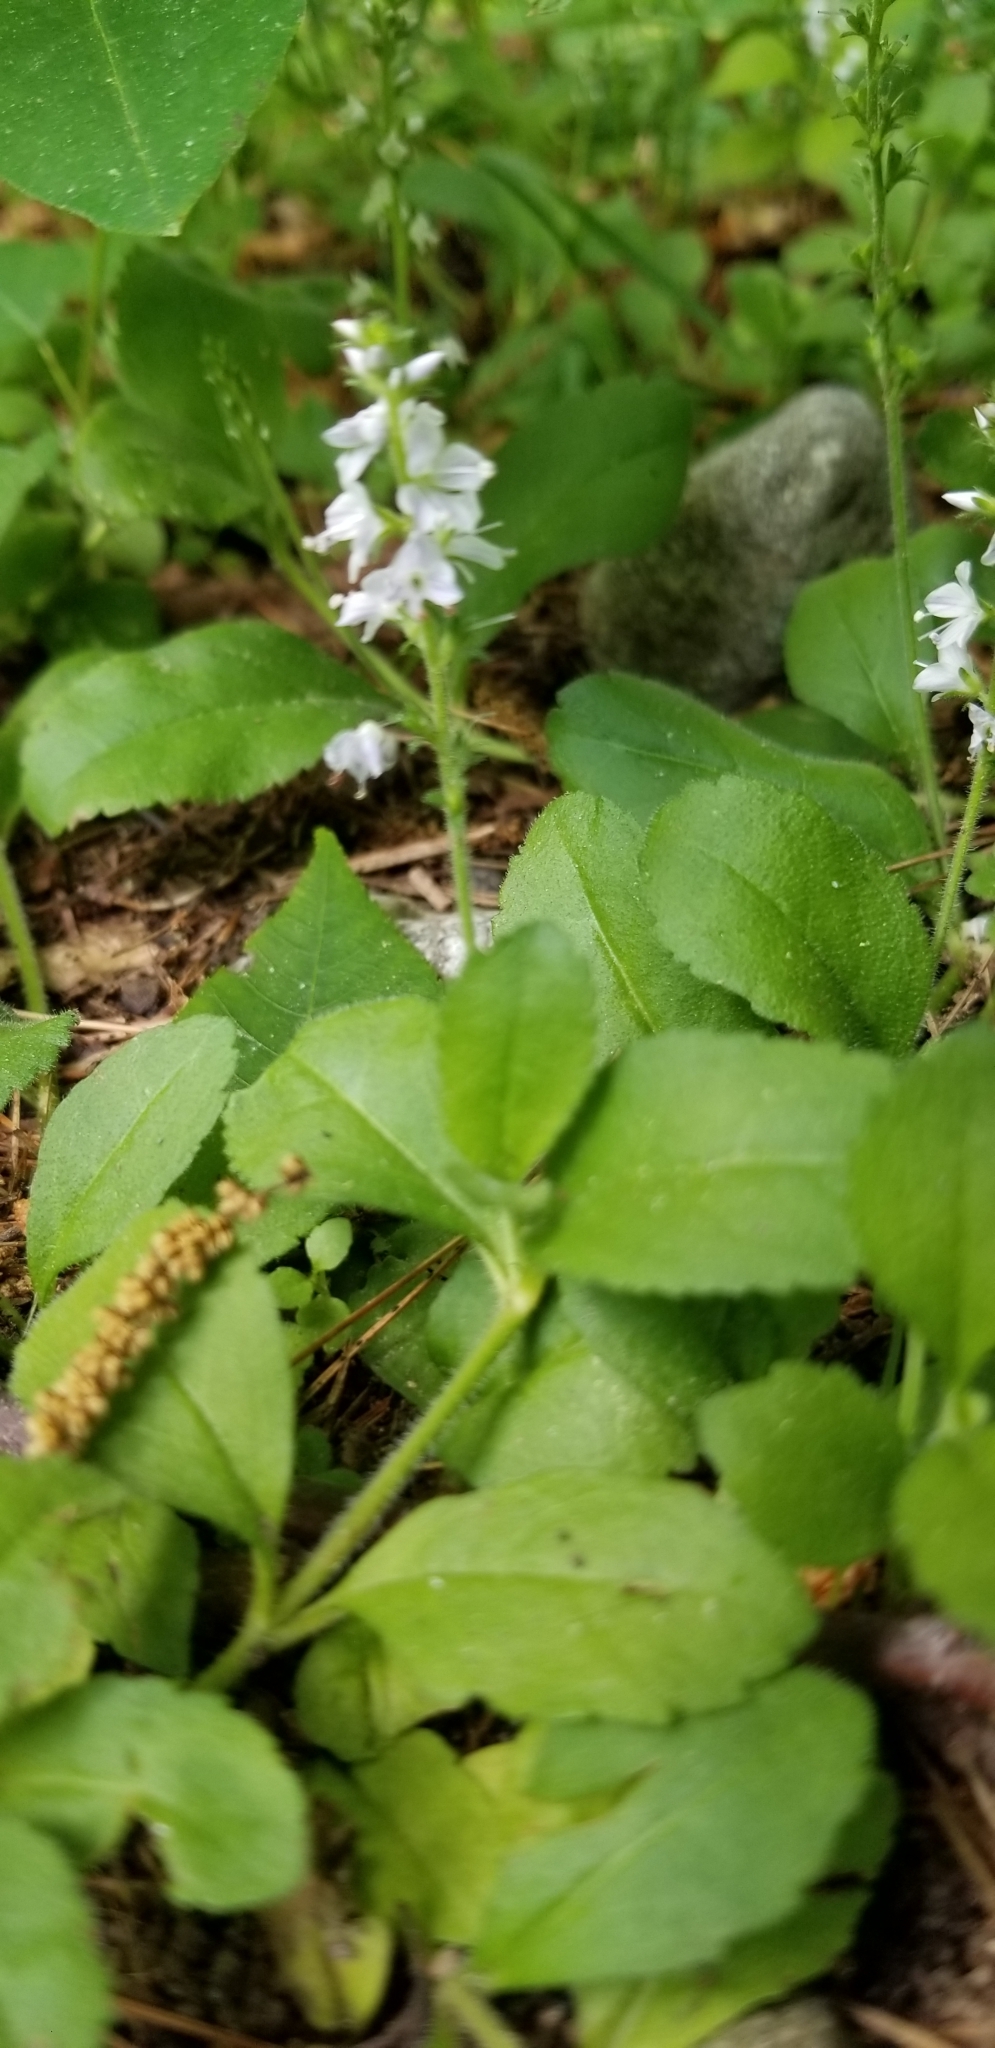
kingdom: Plantae
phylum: Tracheophyta
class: Magnoliopsida
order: Lamiales
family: Plantaginaceae
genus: Veronica
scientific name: Veronica officinalis
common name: Common speedwell
